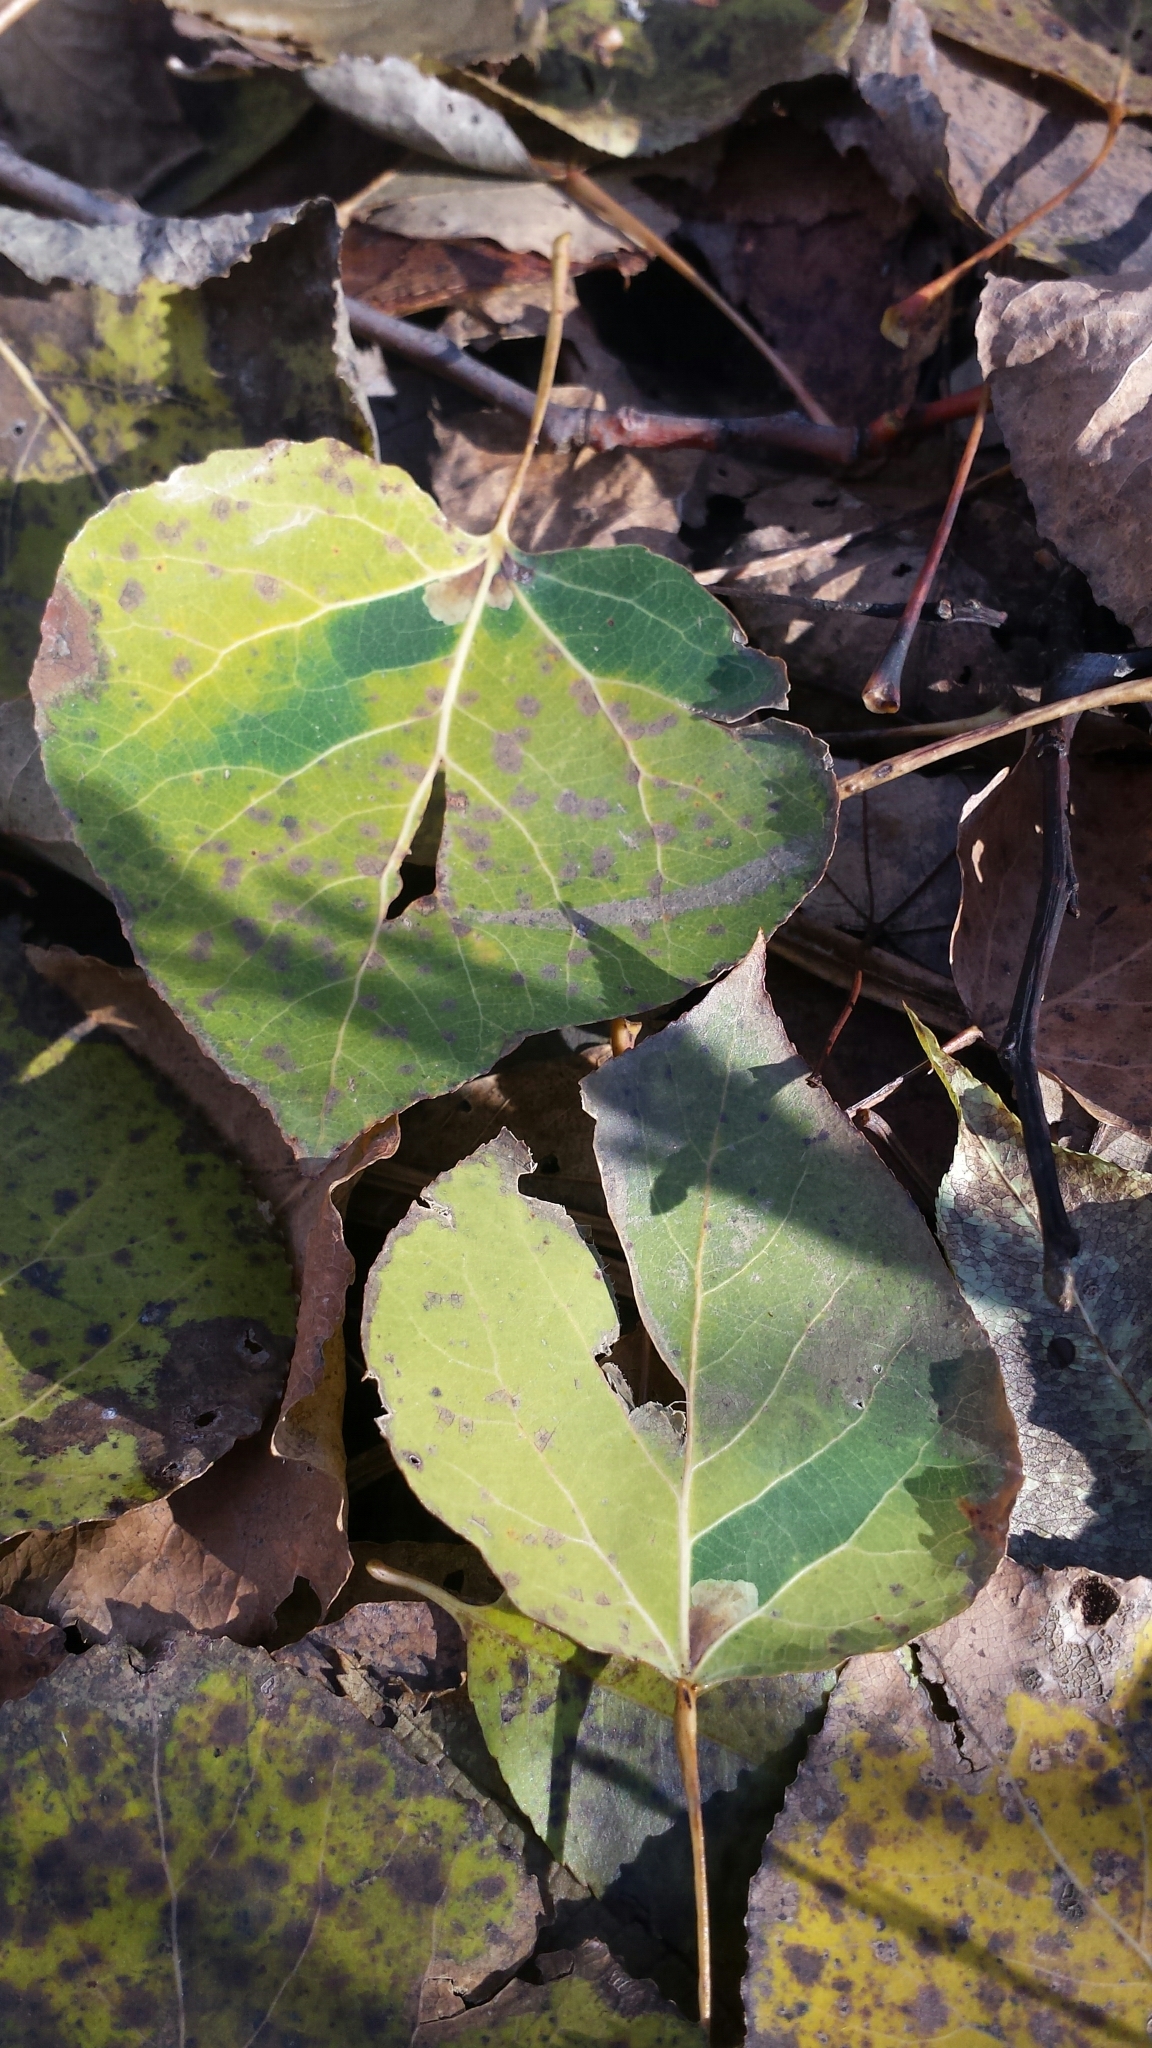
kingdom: Plantae
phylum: Tracheophyta
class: Magnoliopsida
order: Malpighiales
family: Salicaceae
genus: Populus
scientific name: Populus tremuloides
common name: Quaking aspen
